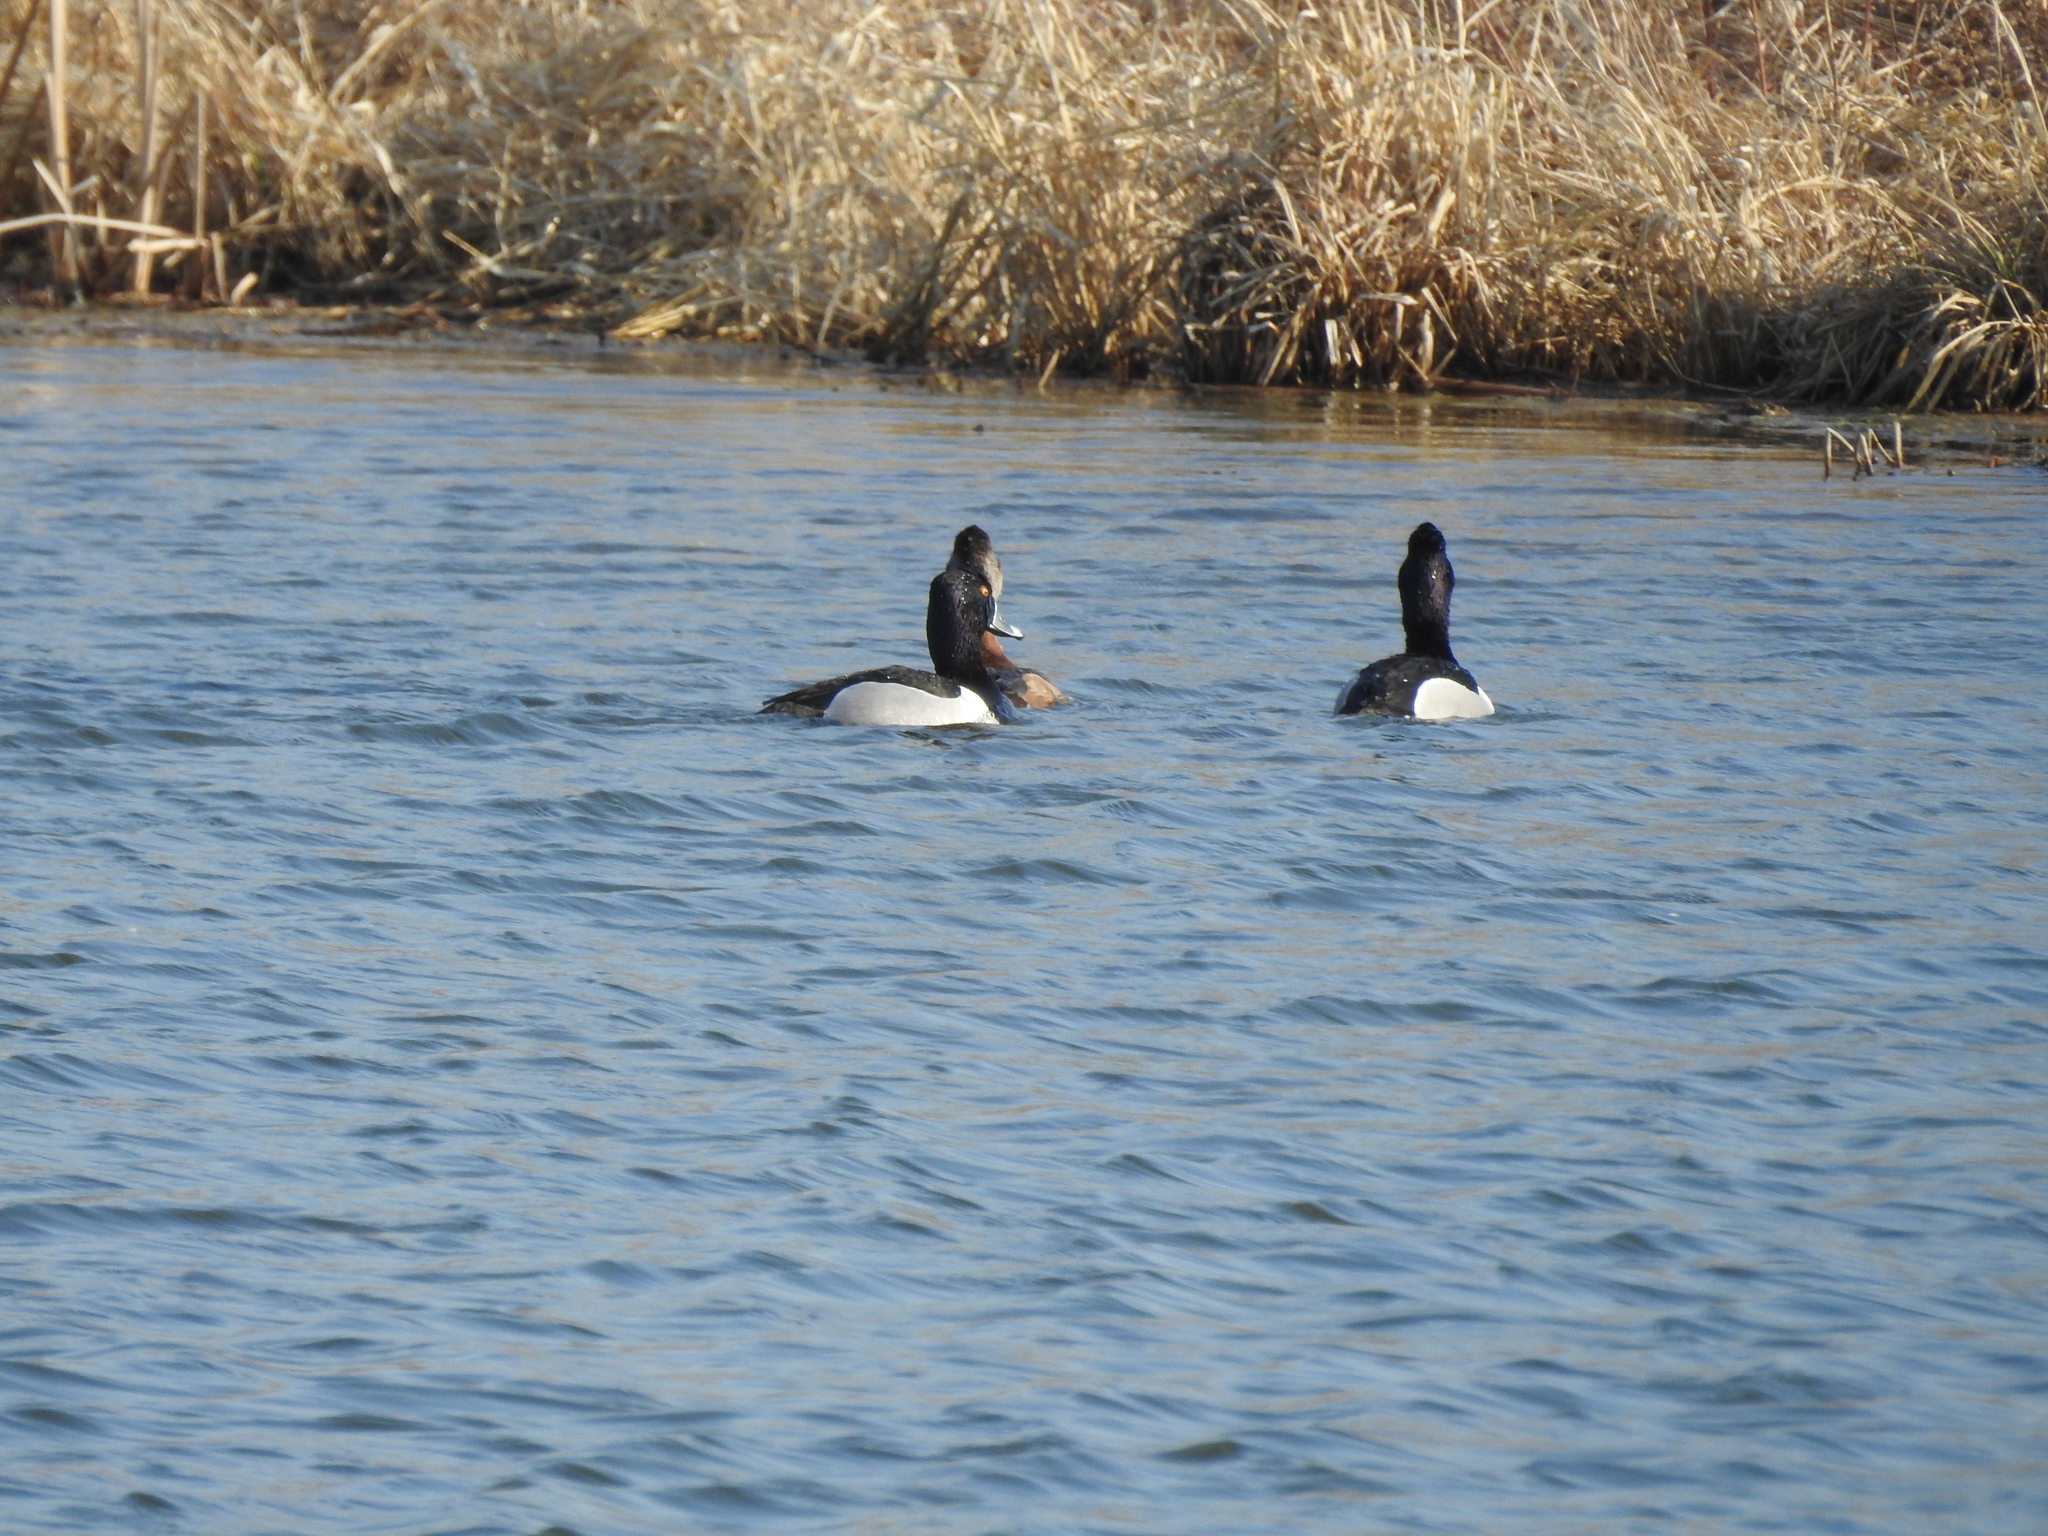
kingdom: Animalia
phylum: Chordata
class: Aves
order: Anseriformes
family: Anatidae
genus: Aythya
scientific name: Aythya collaris
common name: Ring-necked duck
